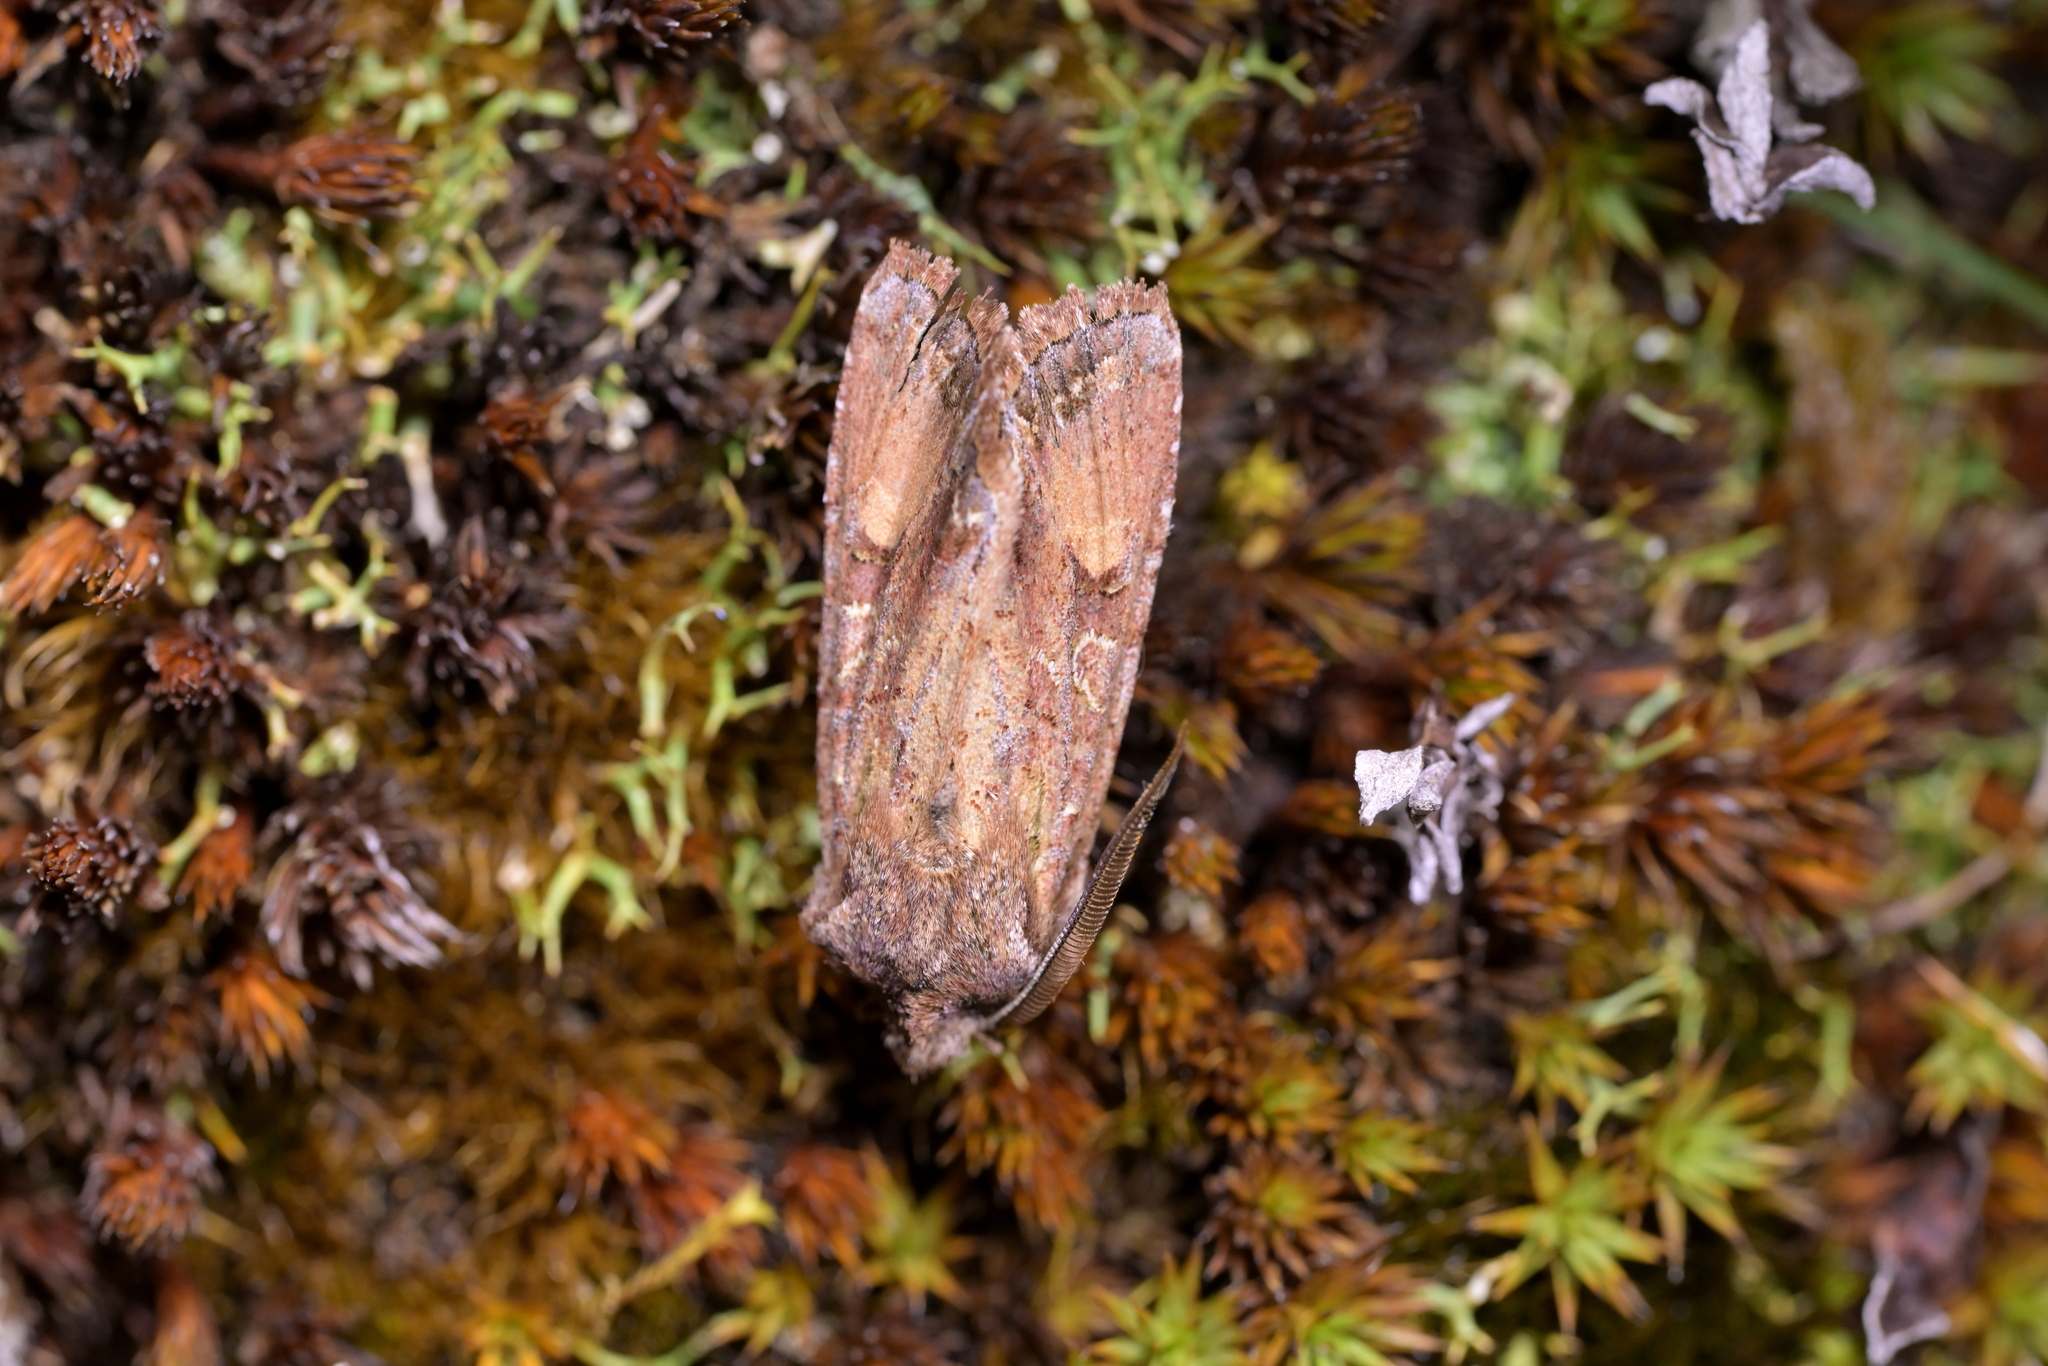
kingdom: Animalia
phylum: Arthropoda
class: Insecta
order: Lepidoptera
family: Noctuidae
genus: Ichneutica
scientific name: Ichneutica
